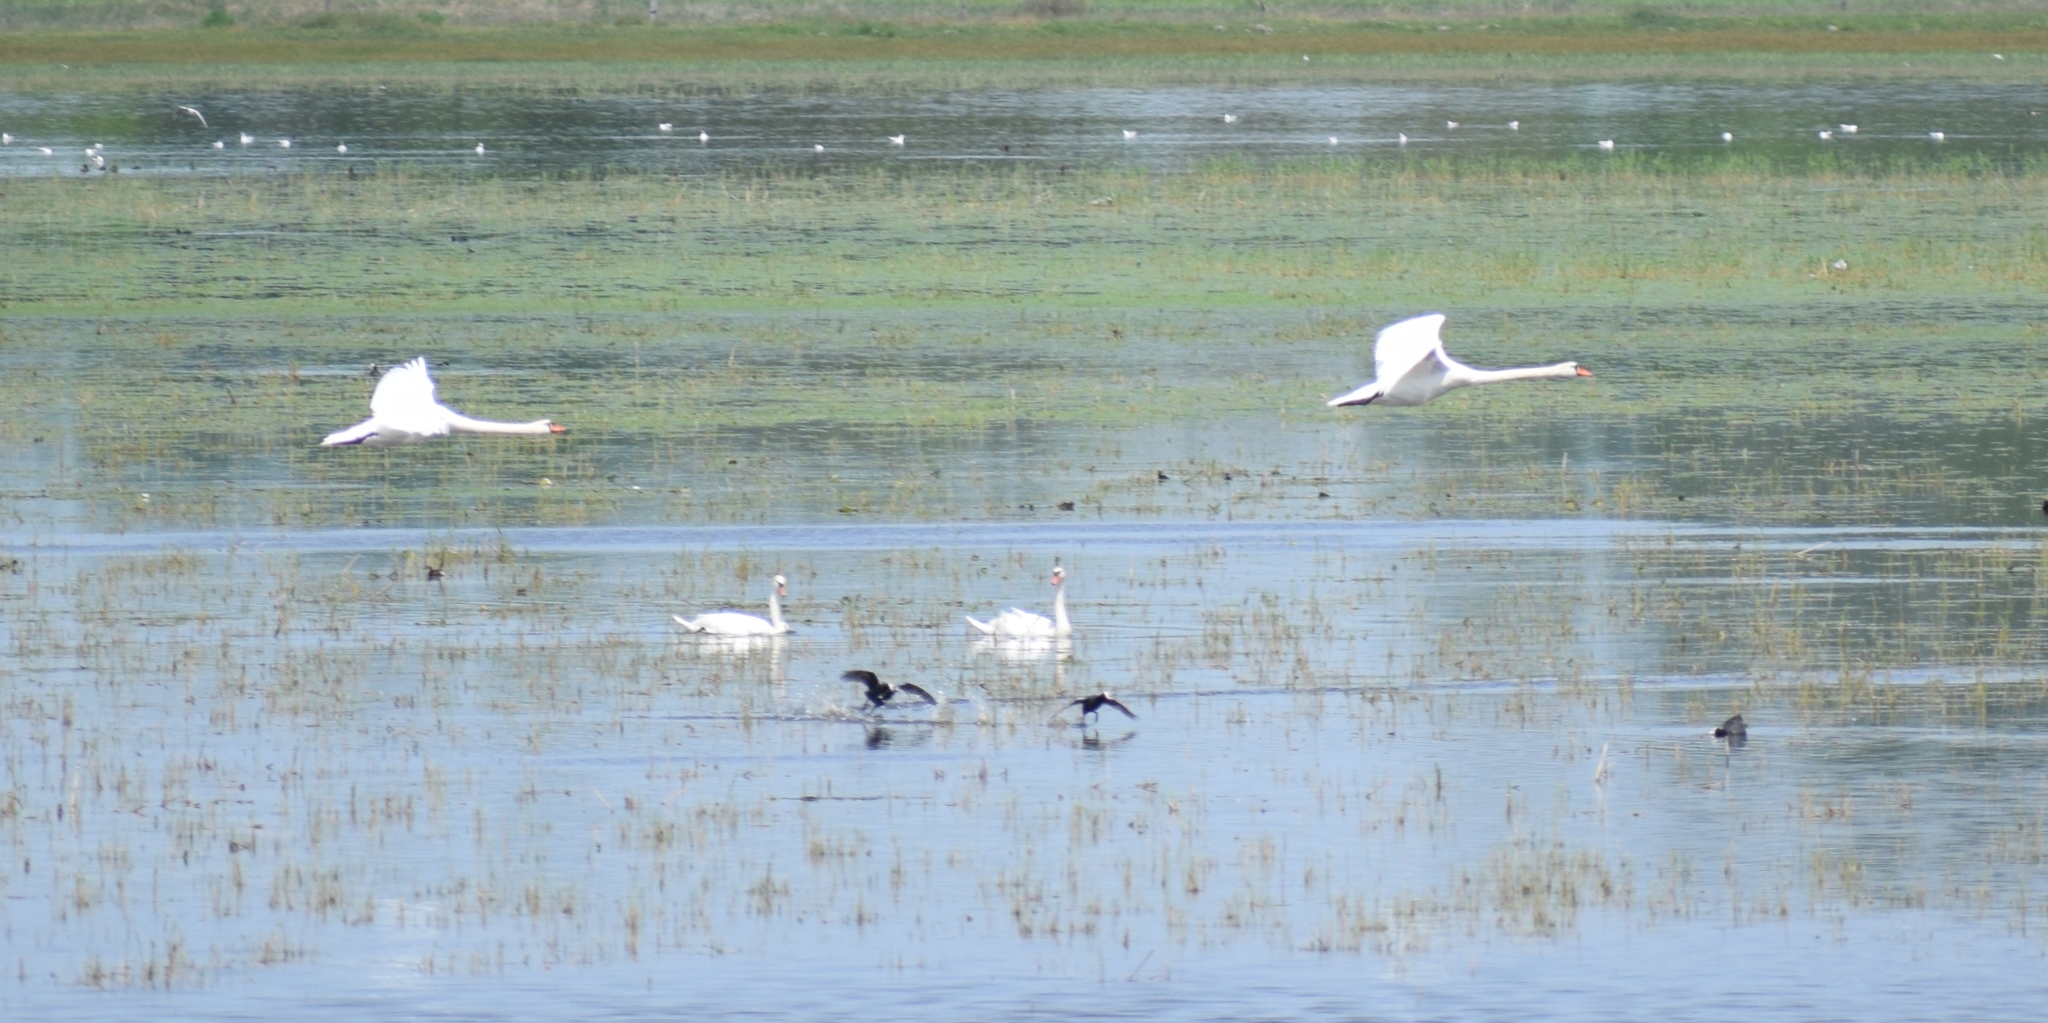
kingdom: Animalia
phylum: Chordata
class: Aves
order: Anseriformes
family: Anatidae
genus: Cygnus
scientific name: Cygnus olor
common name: Mute swan
